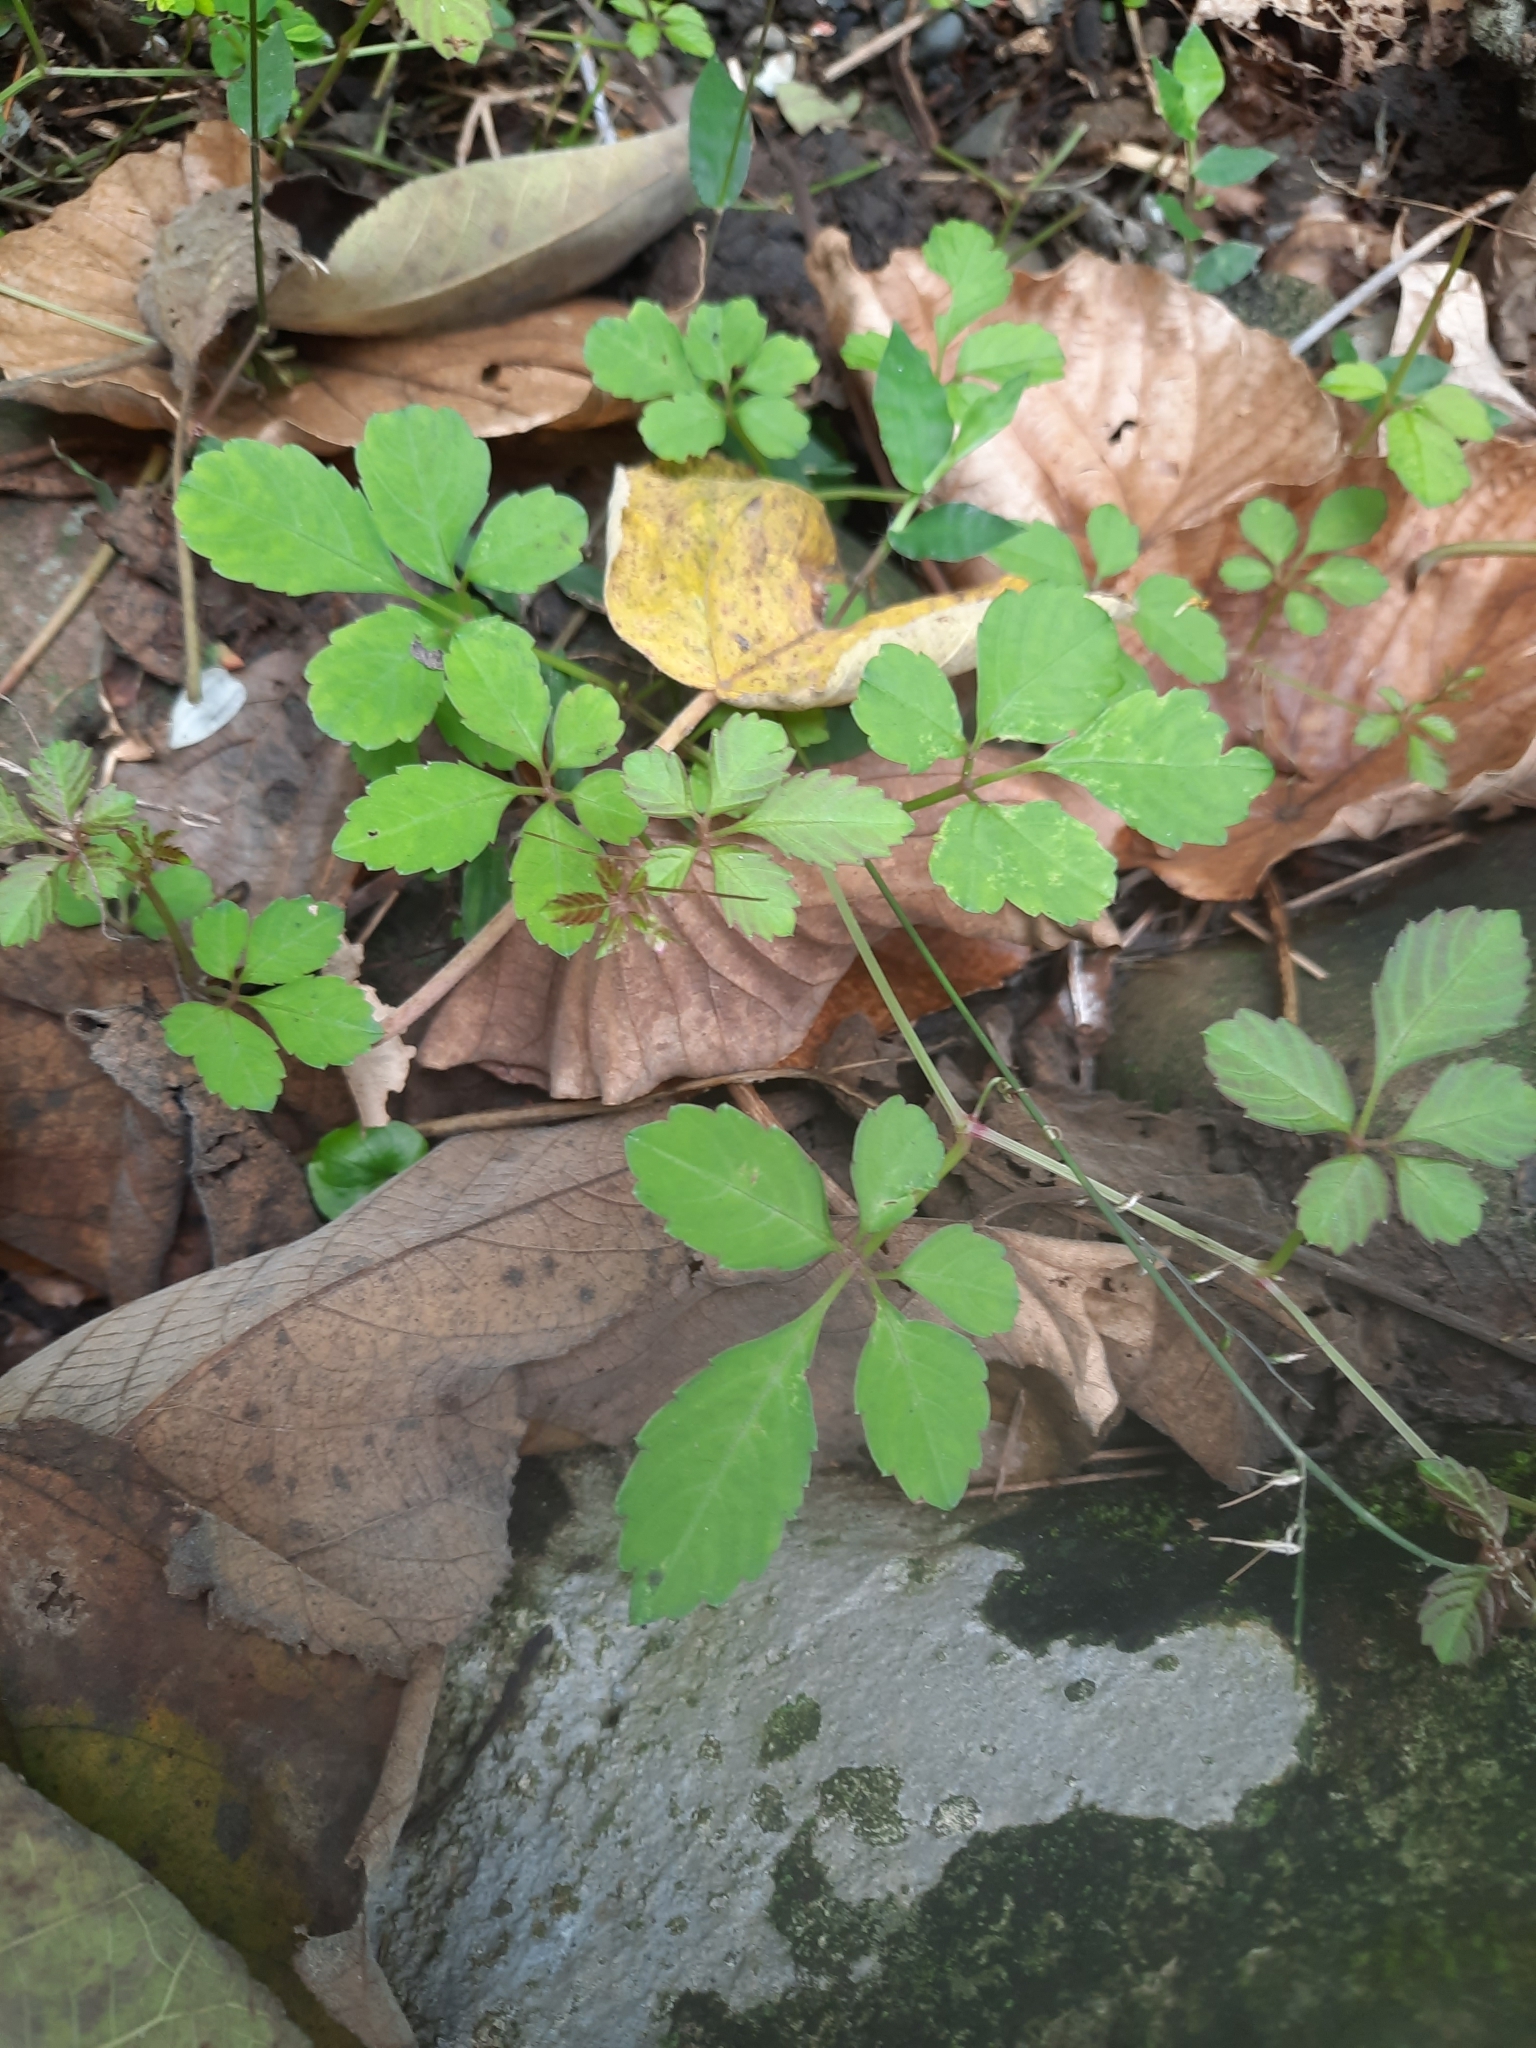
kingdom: Plantae
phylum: Tracheophyta
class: Magnoliopsida
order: Vitales
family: Vitaceae
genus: Causonis
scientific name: Causonis japonica
